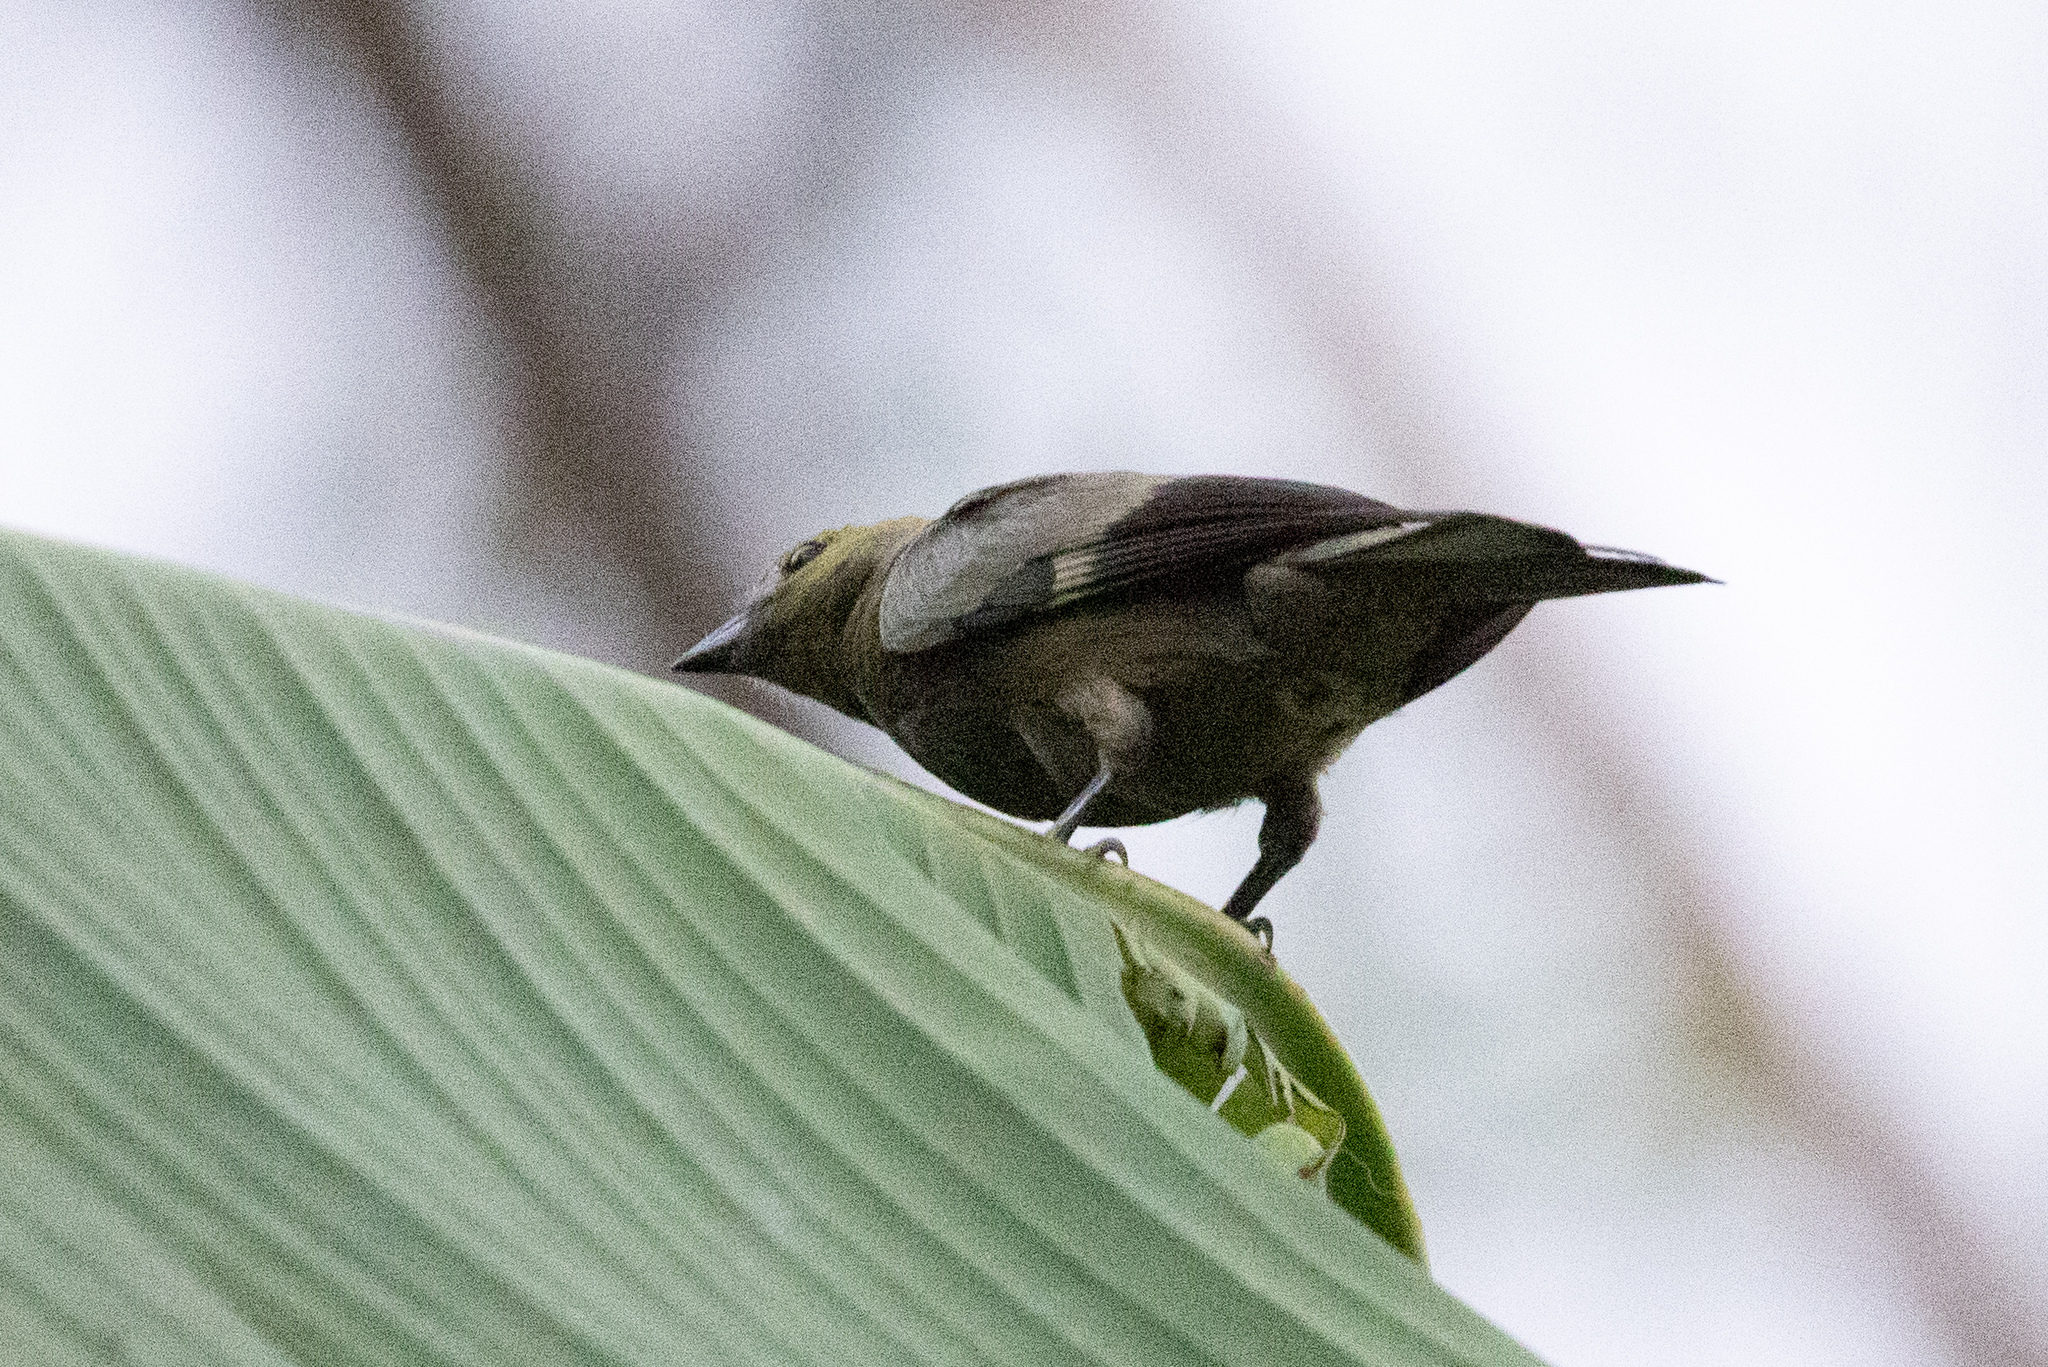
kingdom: Animalia
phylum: Chordata
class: Aves
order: Passeriformes
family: Thraupidae
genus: Thraupis
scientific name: Thraupis palmarum
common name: Palm tanager
